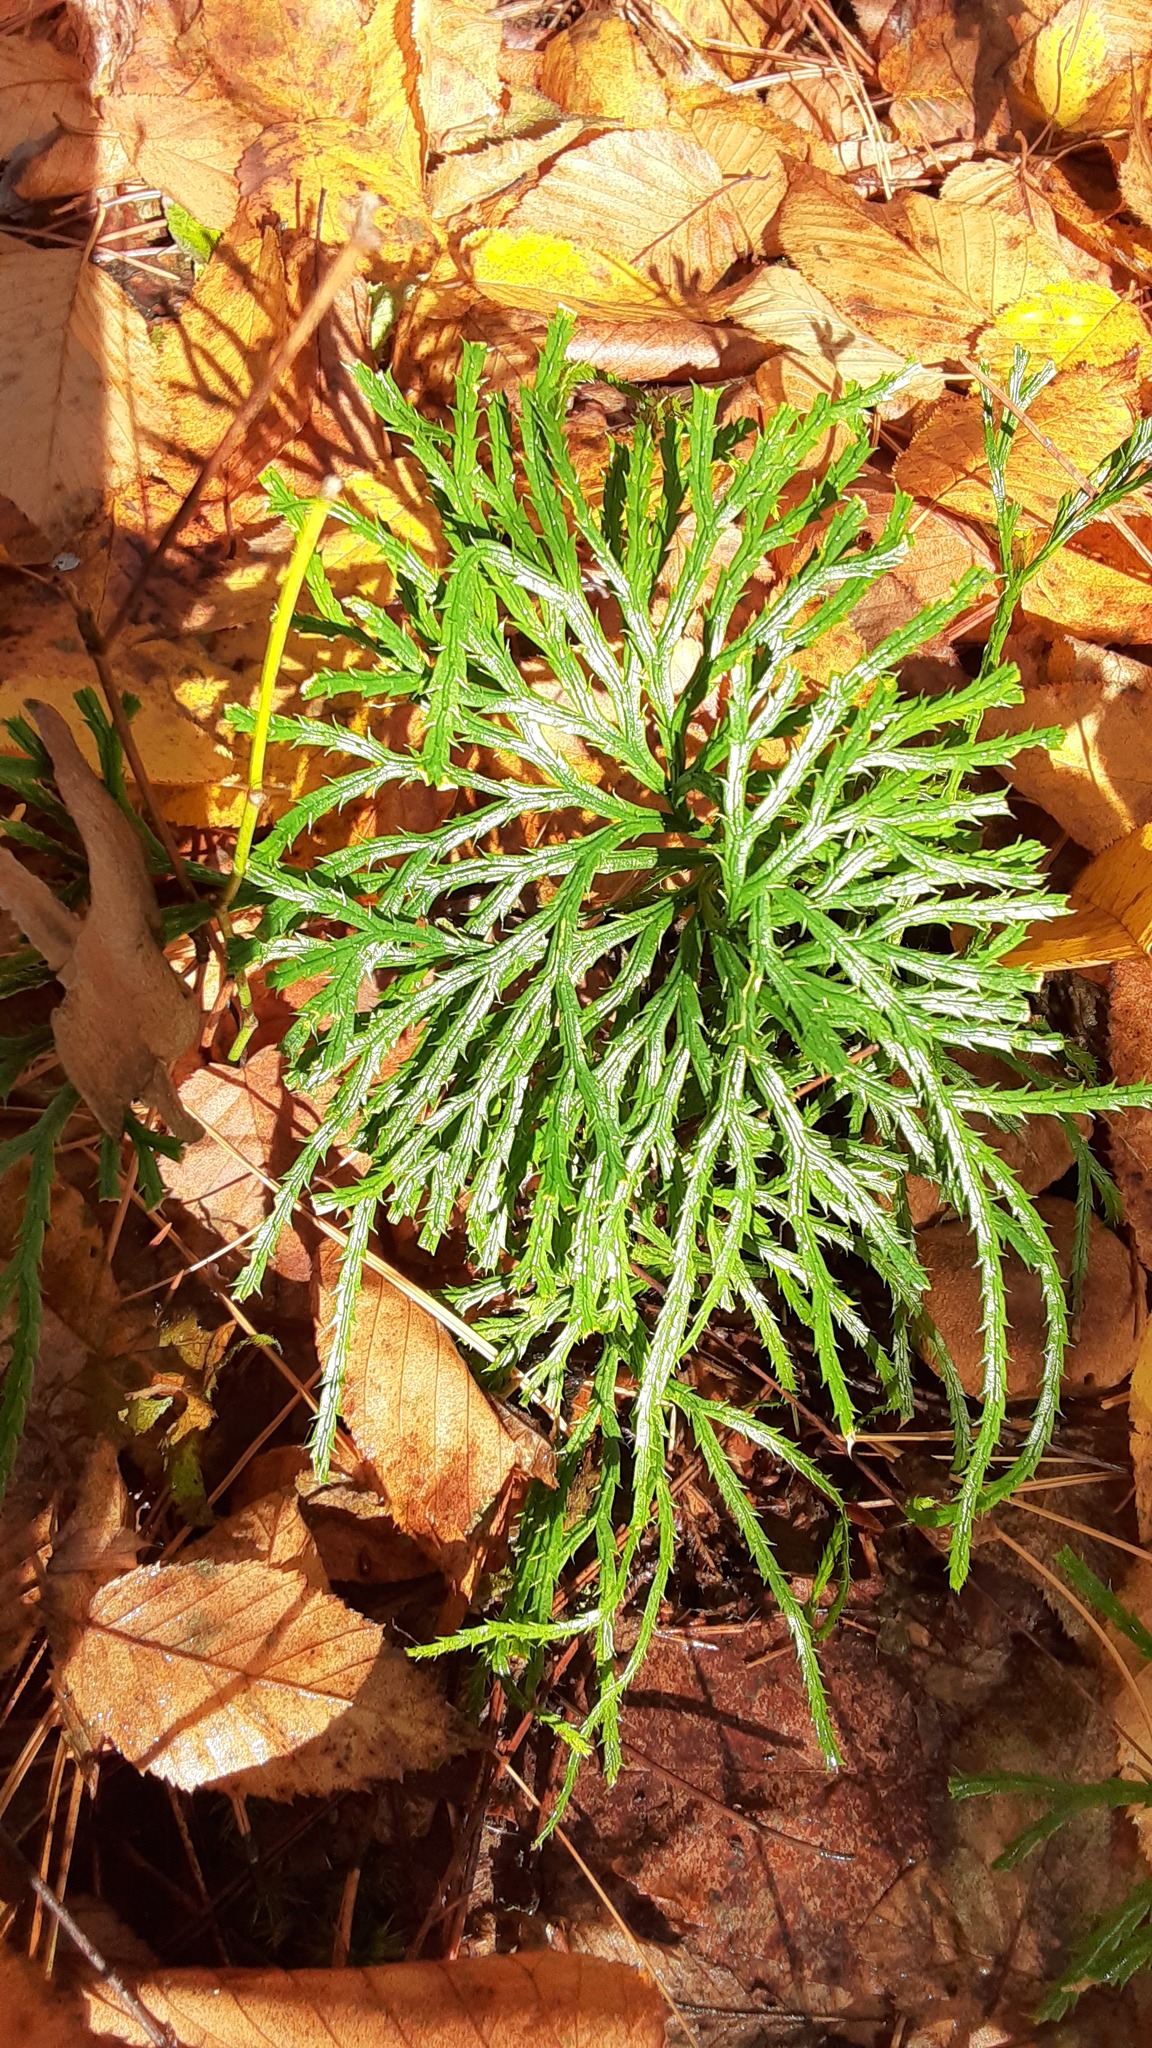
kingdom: Plantae
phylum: Tracheophyta
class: Lycopodiopsida
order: Lycopodiales
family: Lycopodiaceae
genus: Diphasiastrum
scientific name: Diphasiastrum digitatum
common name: Southern running-pine
